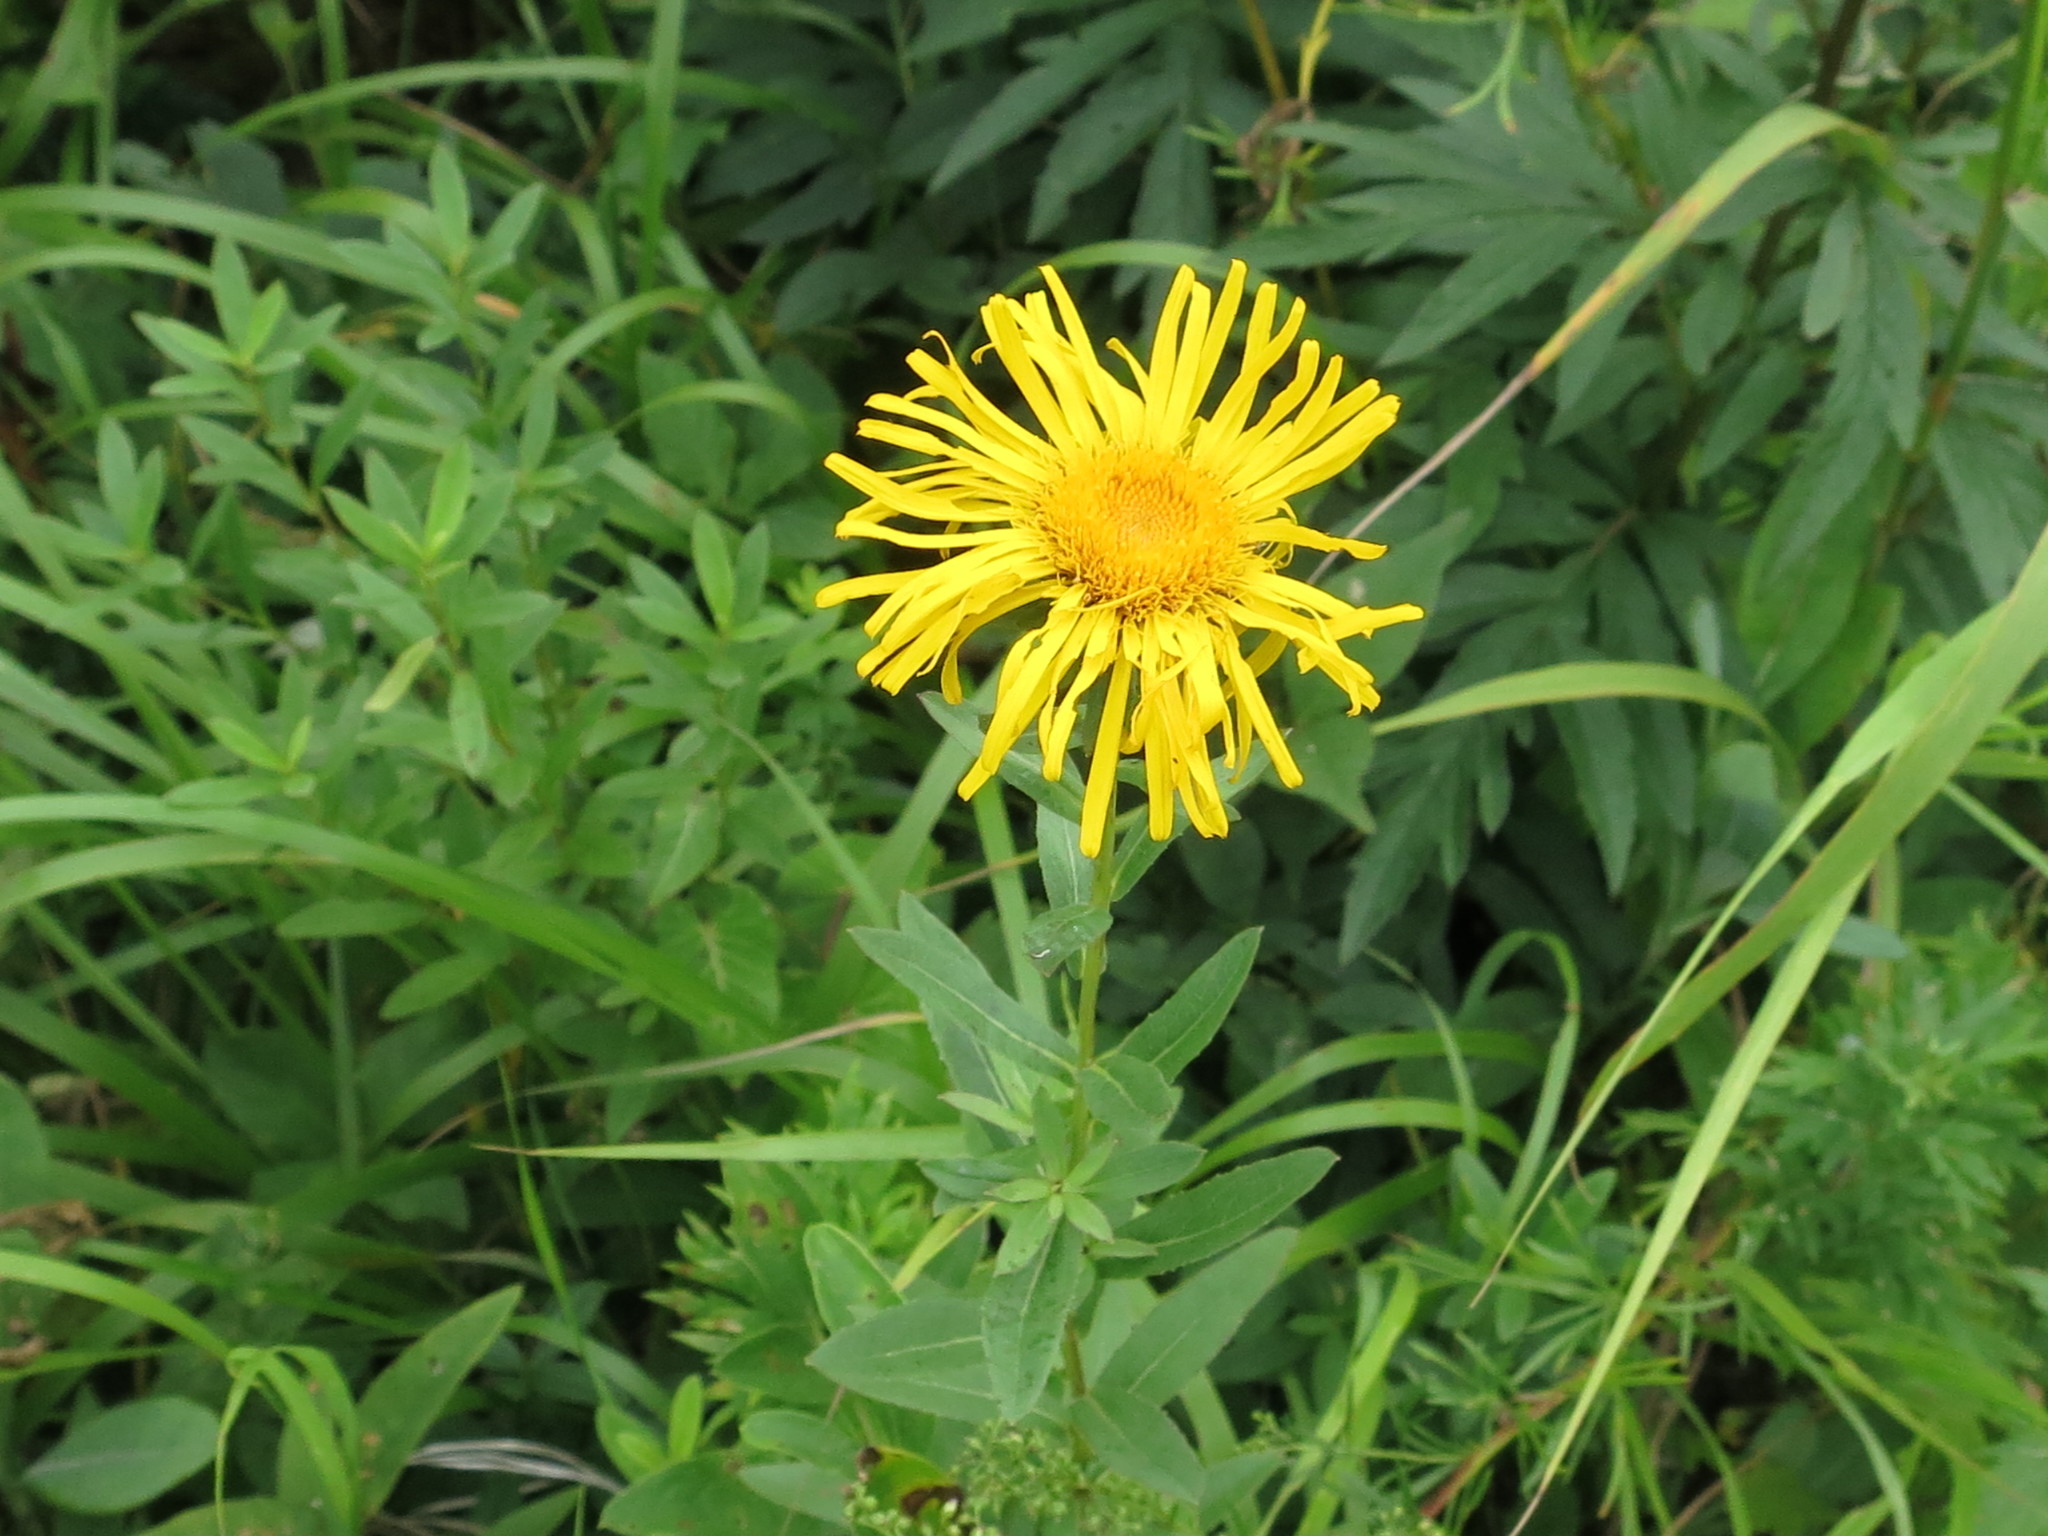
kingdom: Plantae
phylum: Tracheophyta
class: Magnoliopsida
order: Asterales
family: Asteraceae
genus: Pentanema
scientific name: Pentanema salicinum
